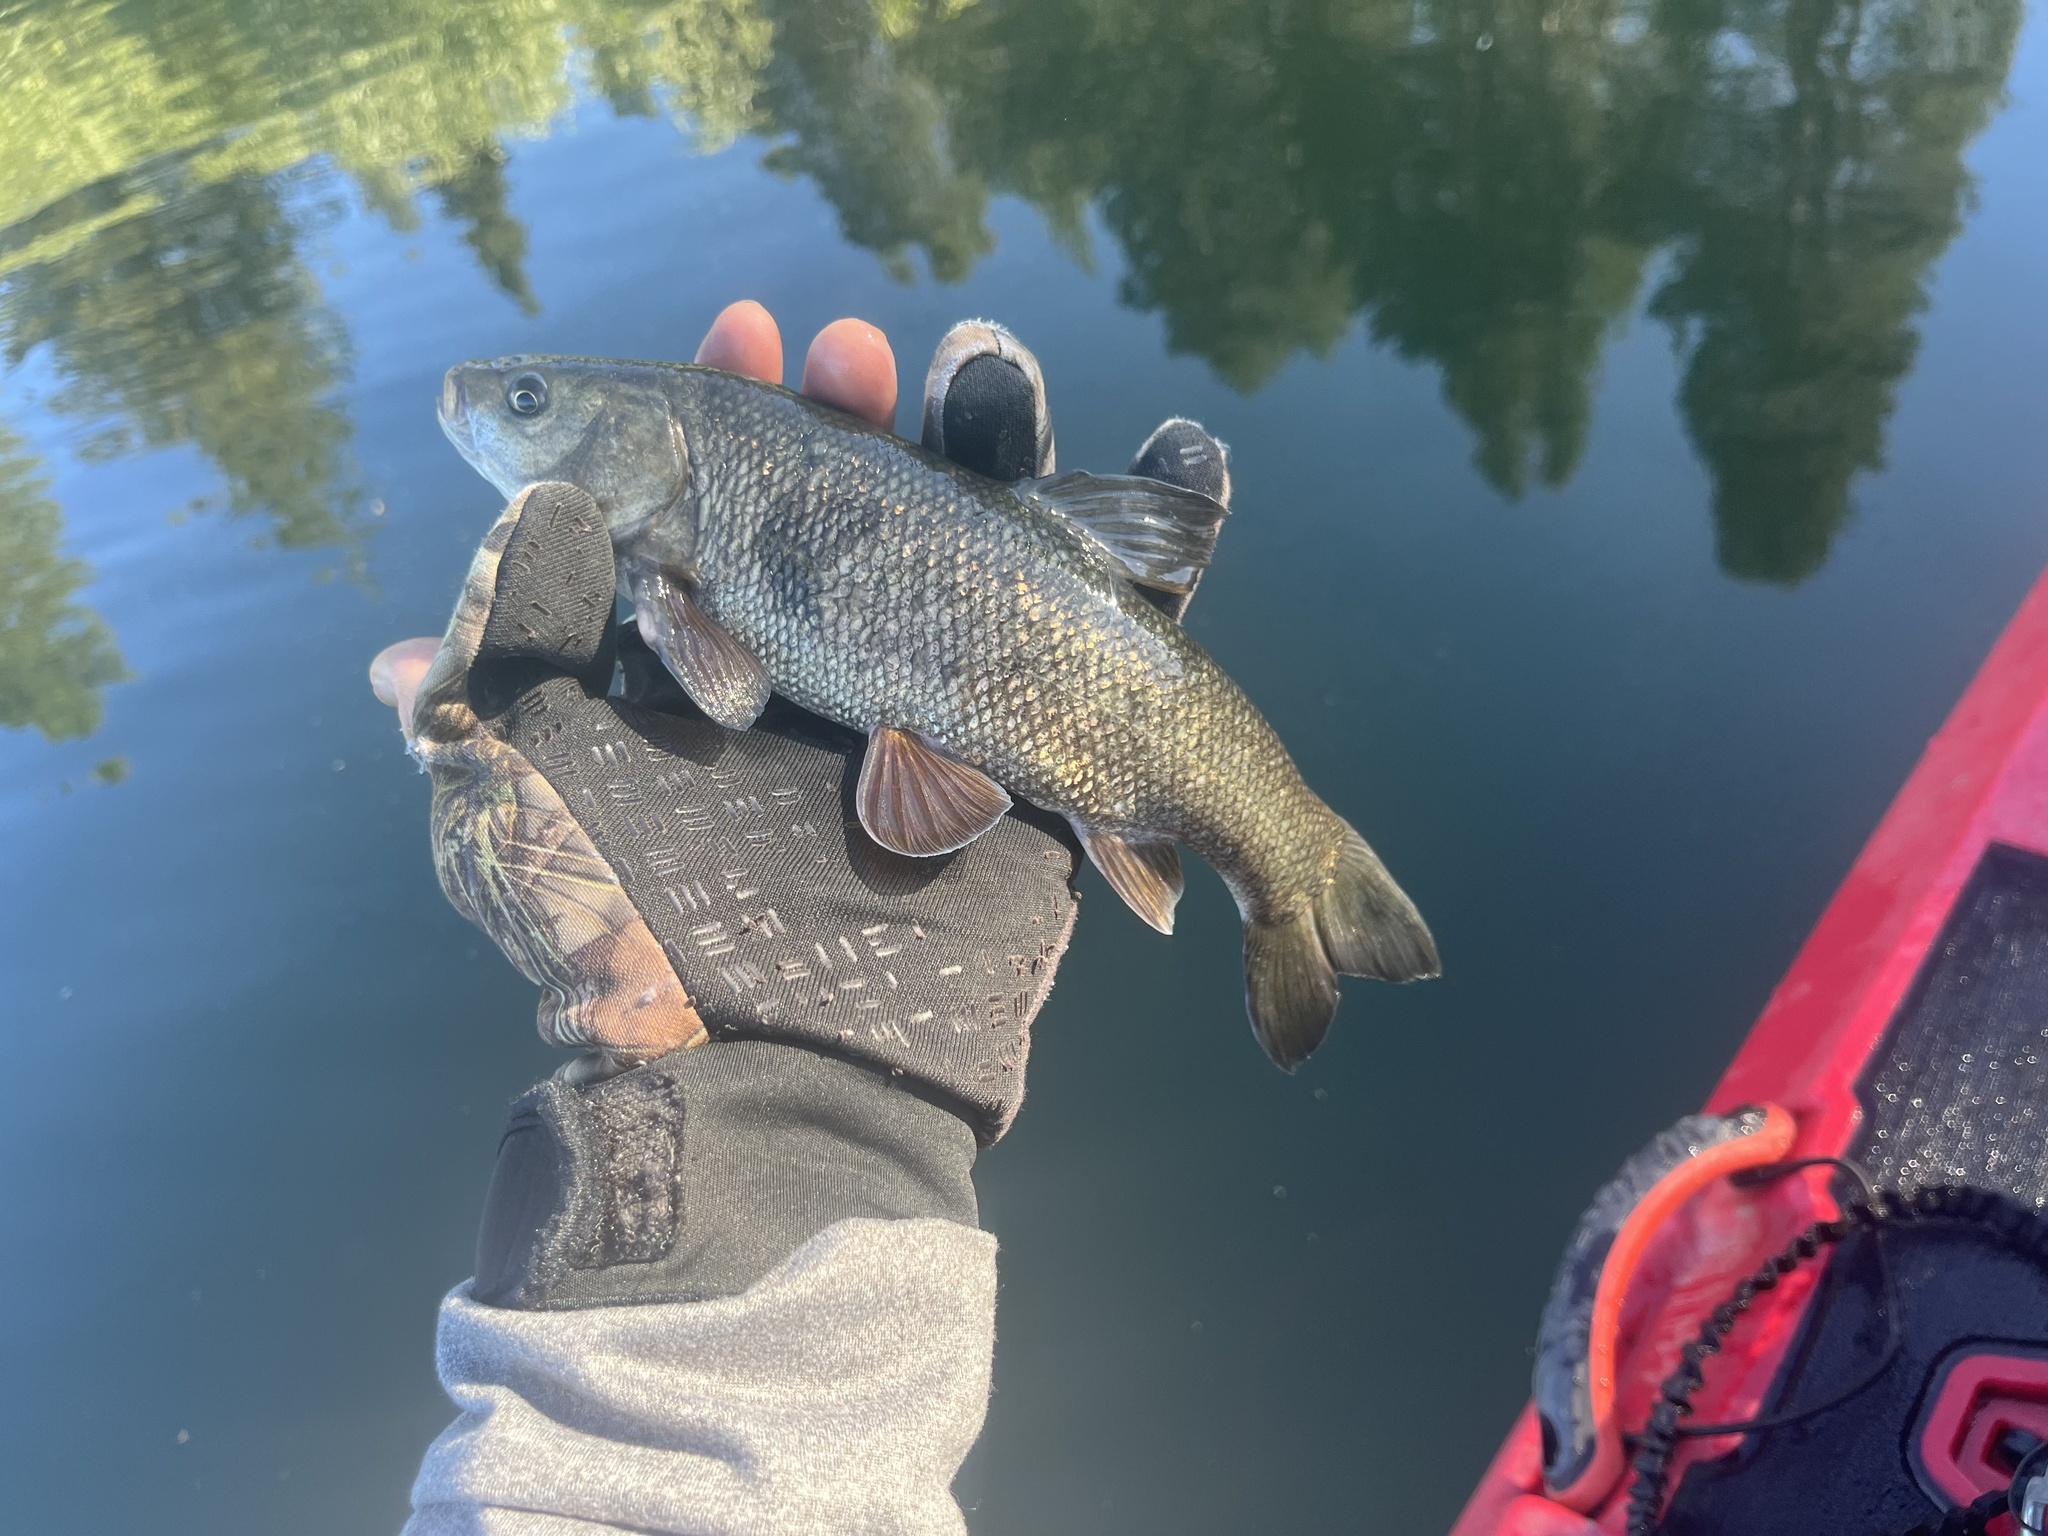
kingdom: Animalia
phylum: Chordata
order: Cypriniformes
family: Cyprinidae
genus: Siphateles
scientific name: Siphateles bicolor
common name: Tui chub
